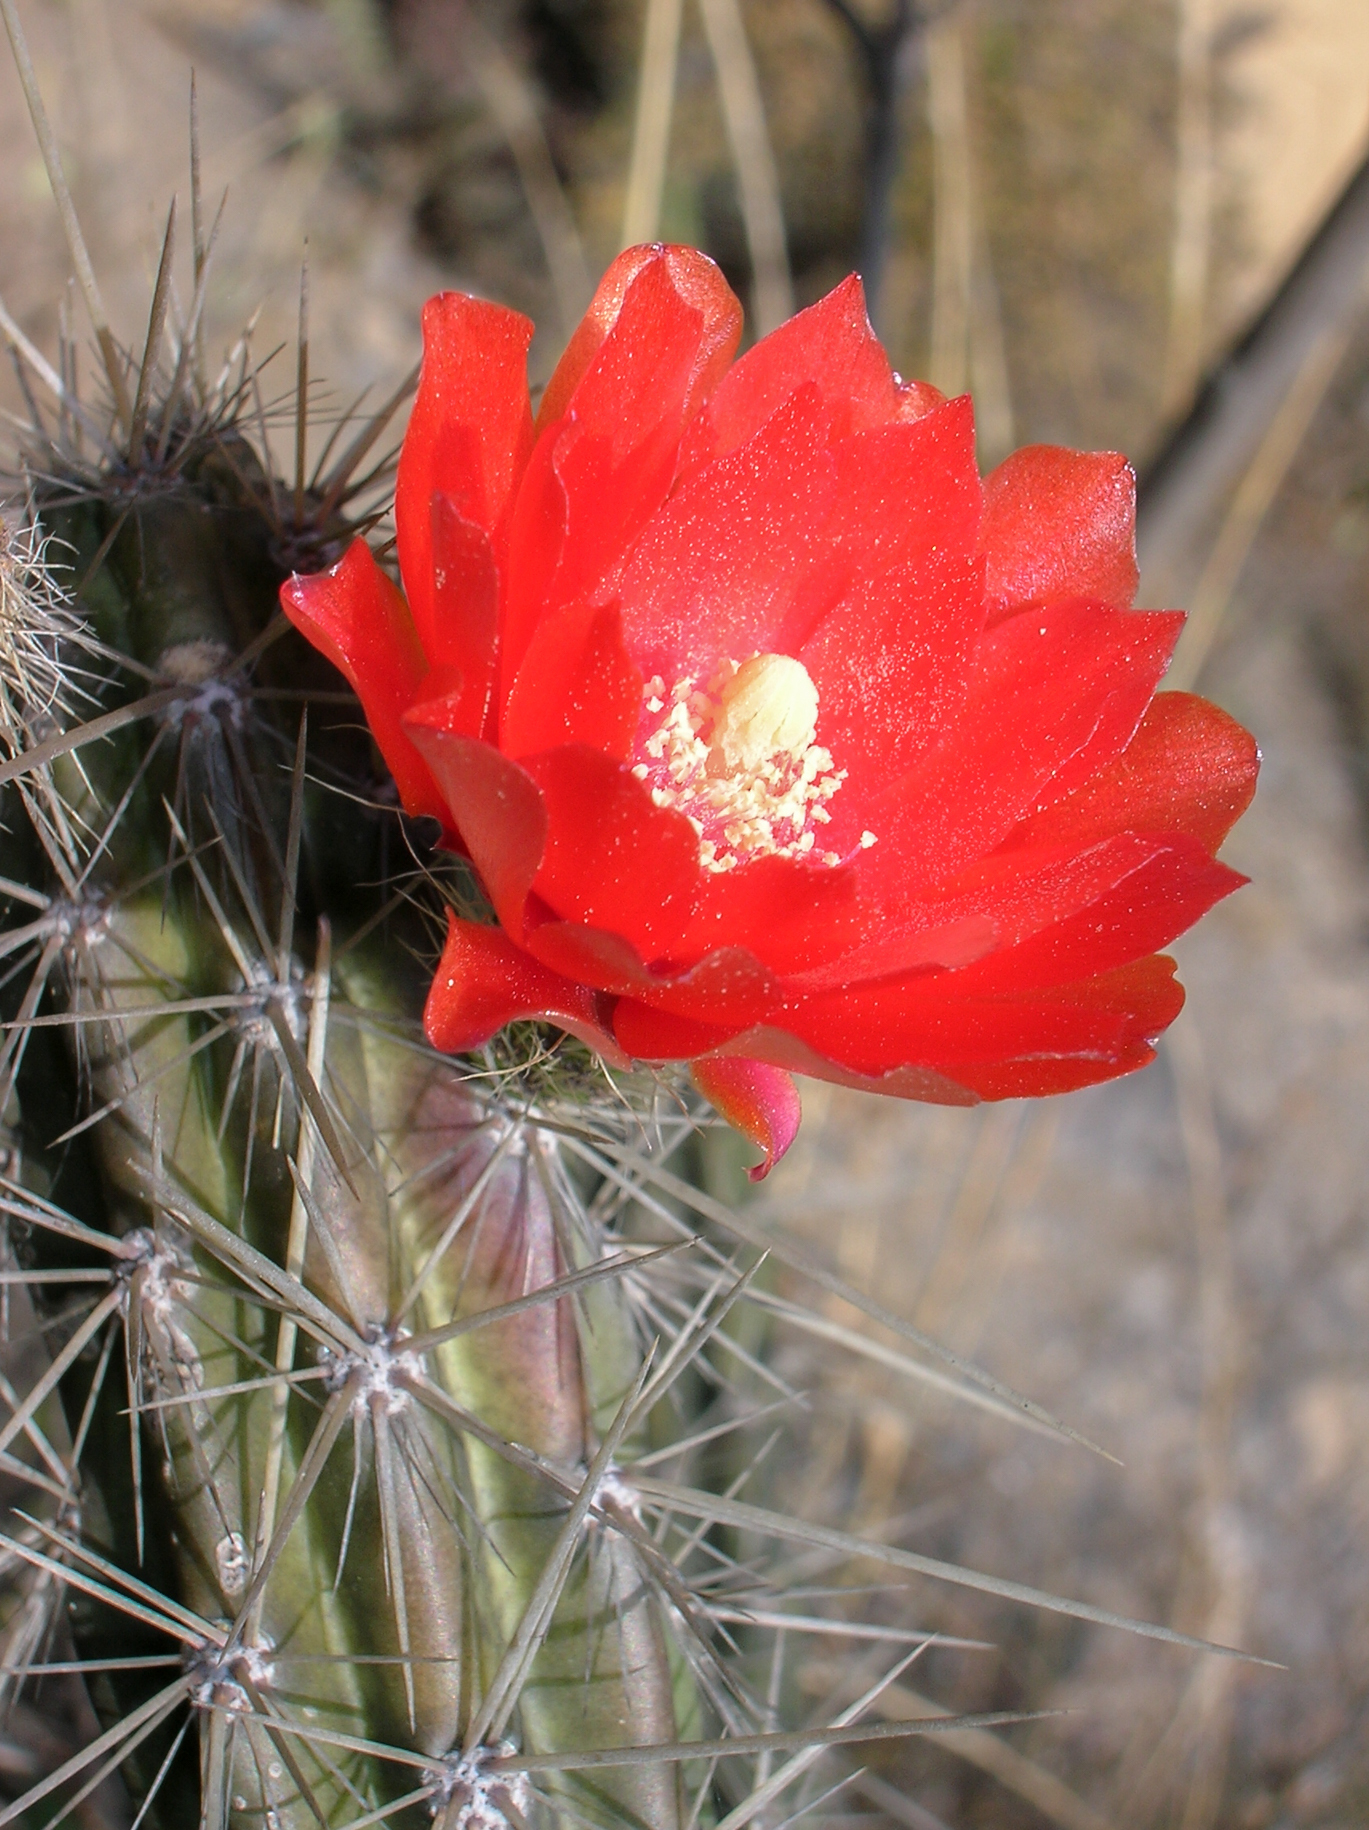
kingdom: Plantae
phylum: Tracheophyta
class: Magnoliopsida
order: Caryophyllales
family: Cactaceae
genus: Corryocactus
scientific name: Corryocactus erectus
